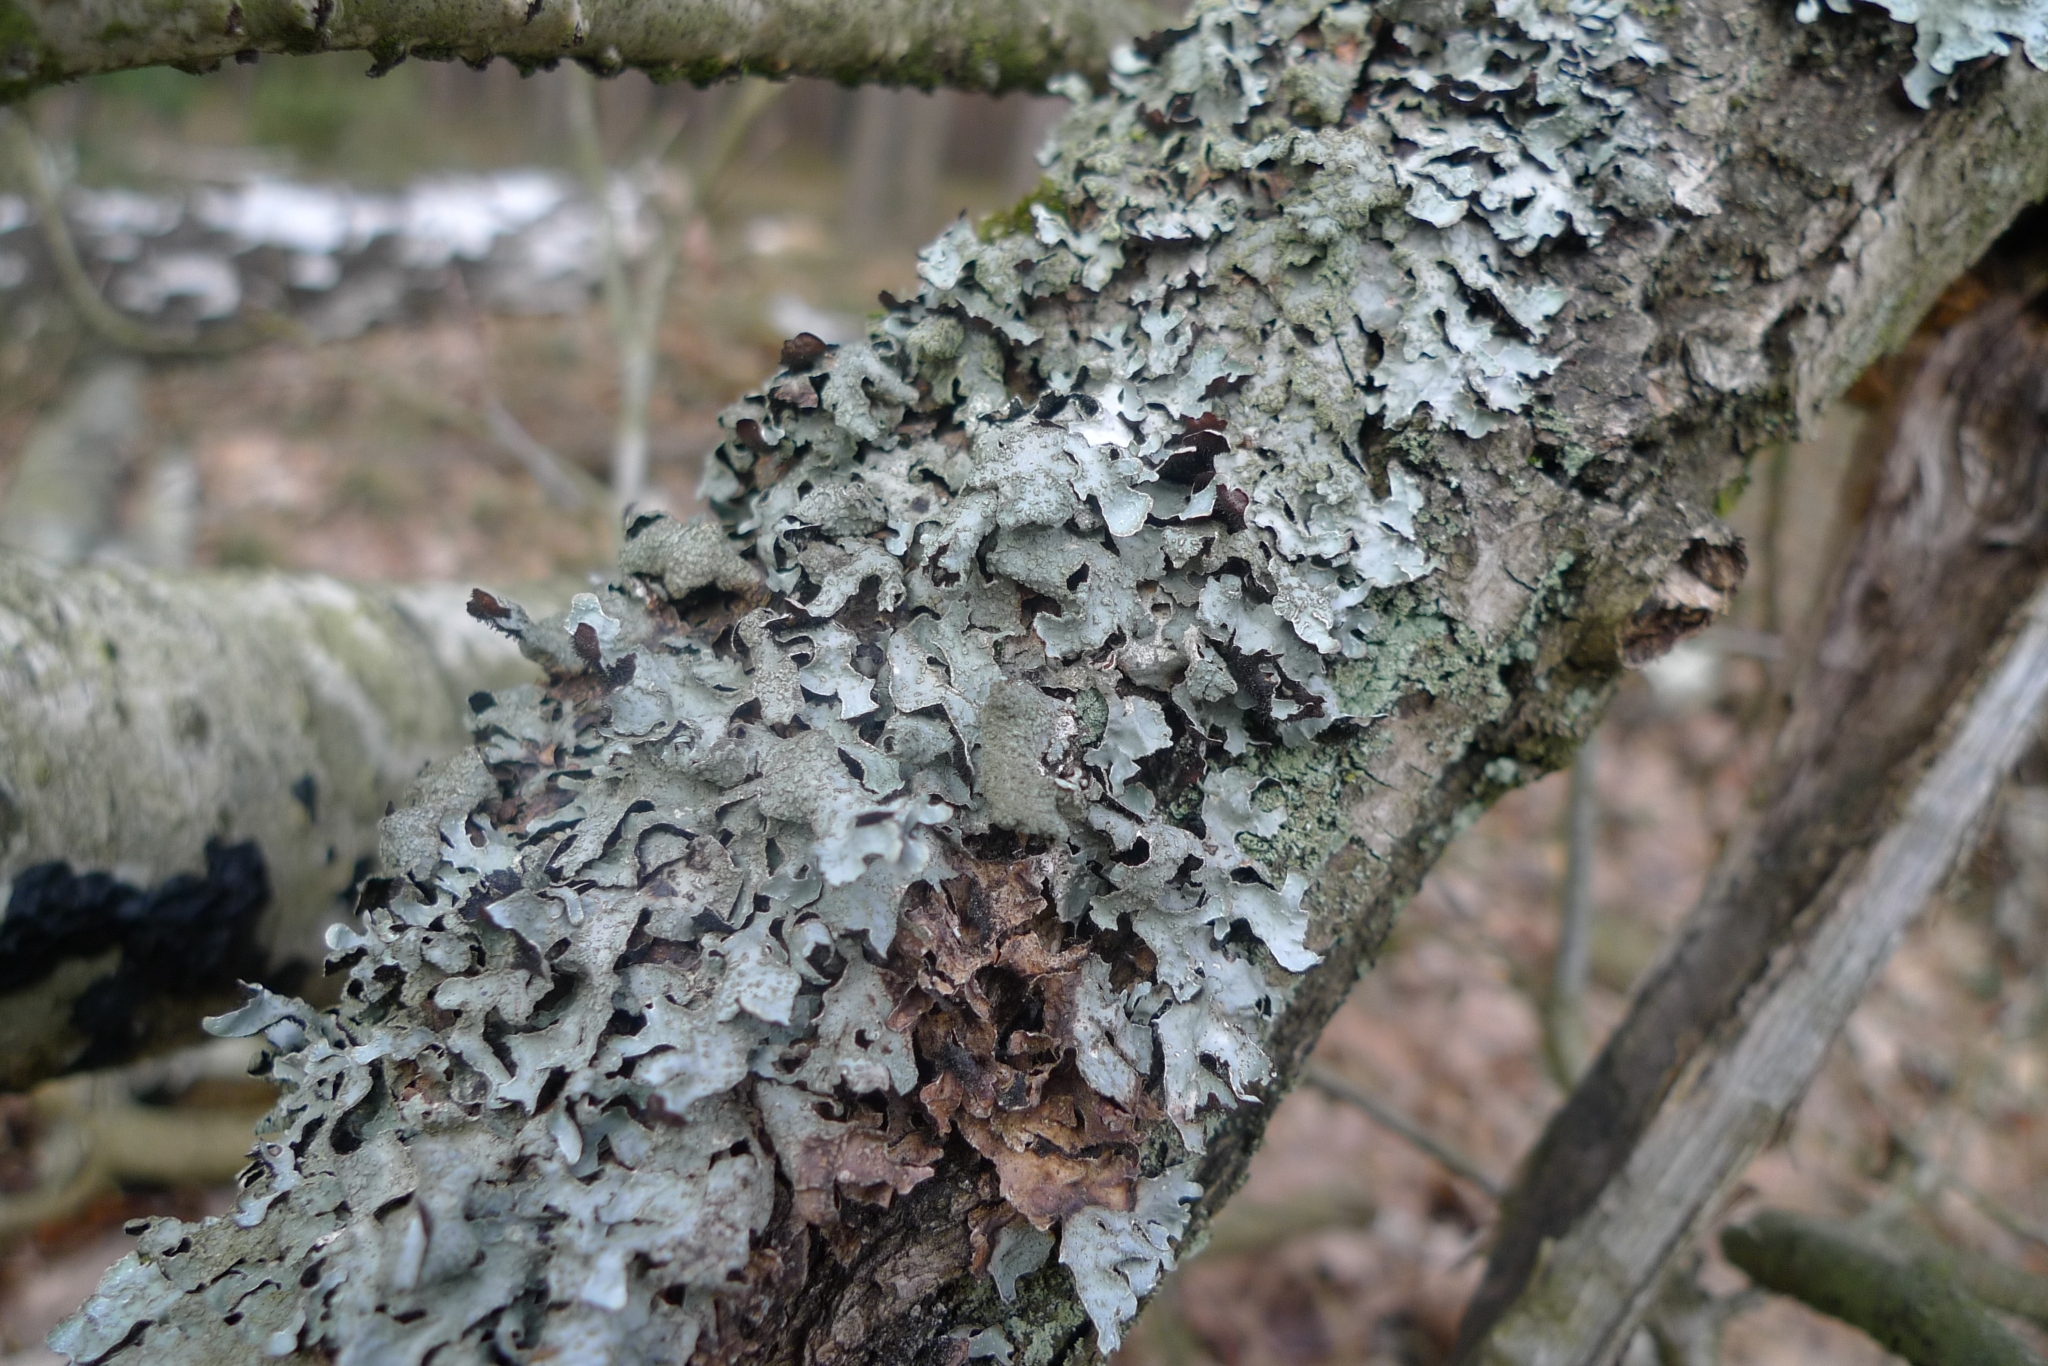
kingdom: Fungi
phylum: Ascomycota
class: Lecanoromycetes
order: Lecanorales
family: Parmeliaceae
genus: Parmelia
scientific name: Parmelia sulcata
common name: Netted shield lichen
